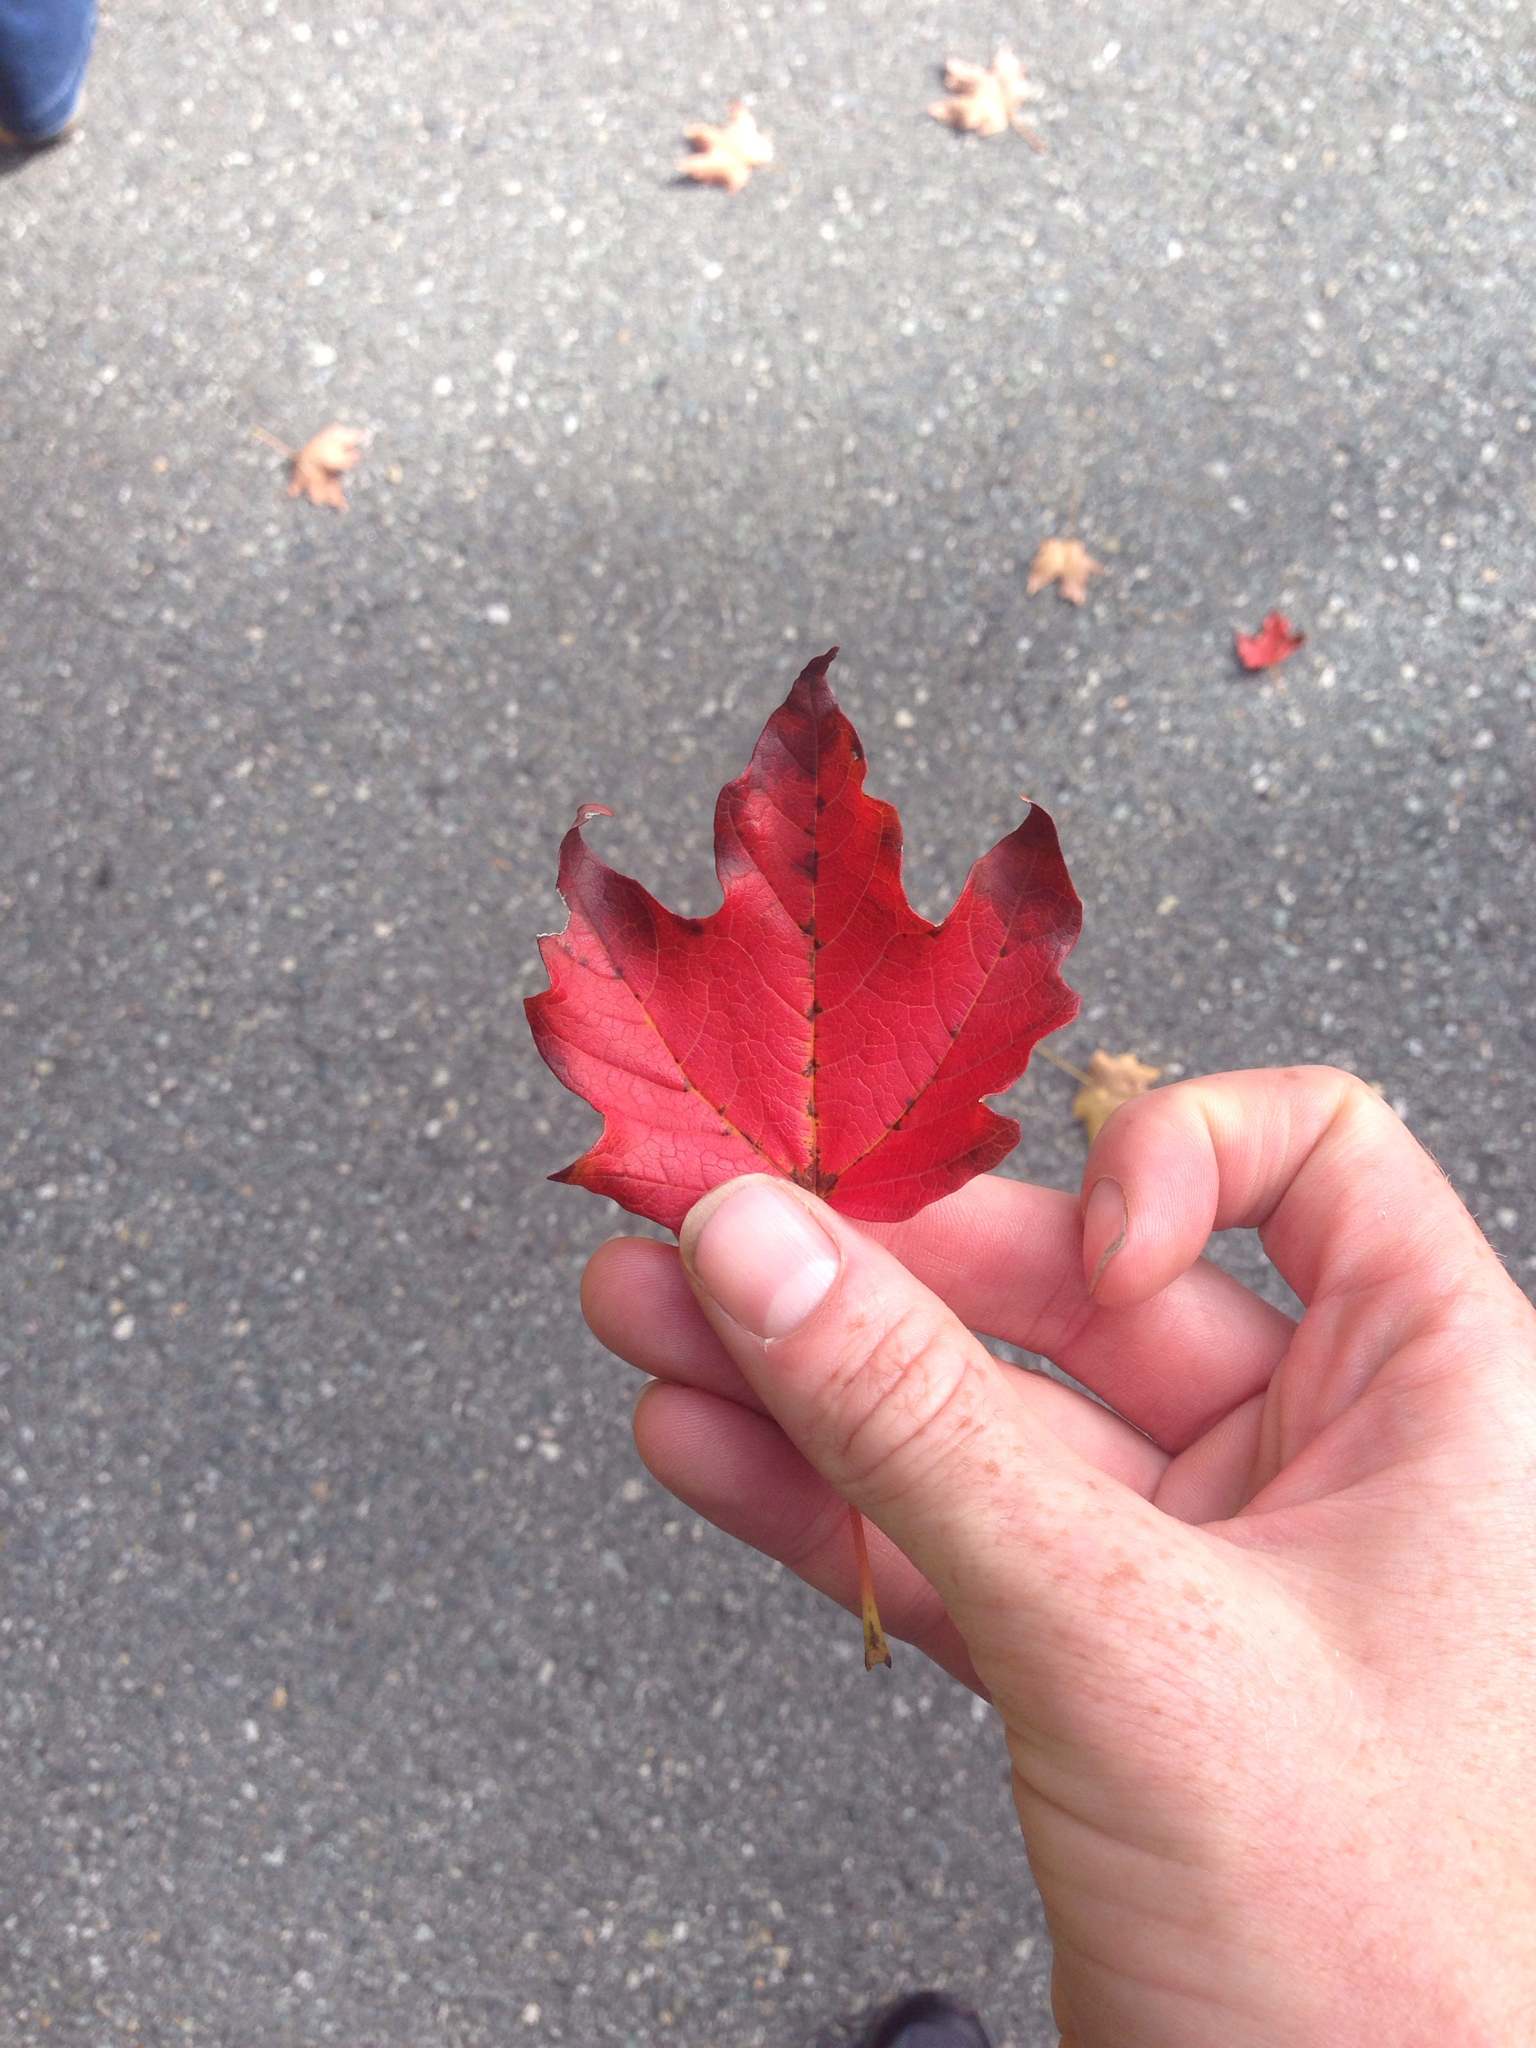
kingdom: Plantae
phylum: Tracheophyta
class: Magnoliopsida
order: Sapindales
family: Sapindaceae
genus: Acer
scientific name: Acer saccharum
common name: Sugar maple
